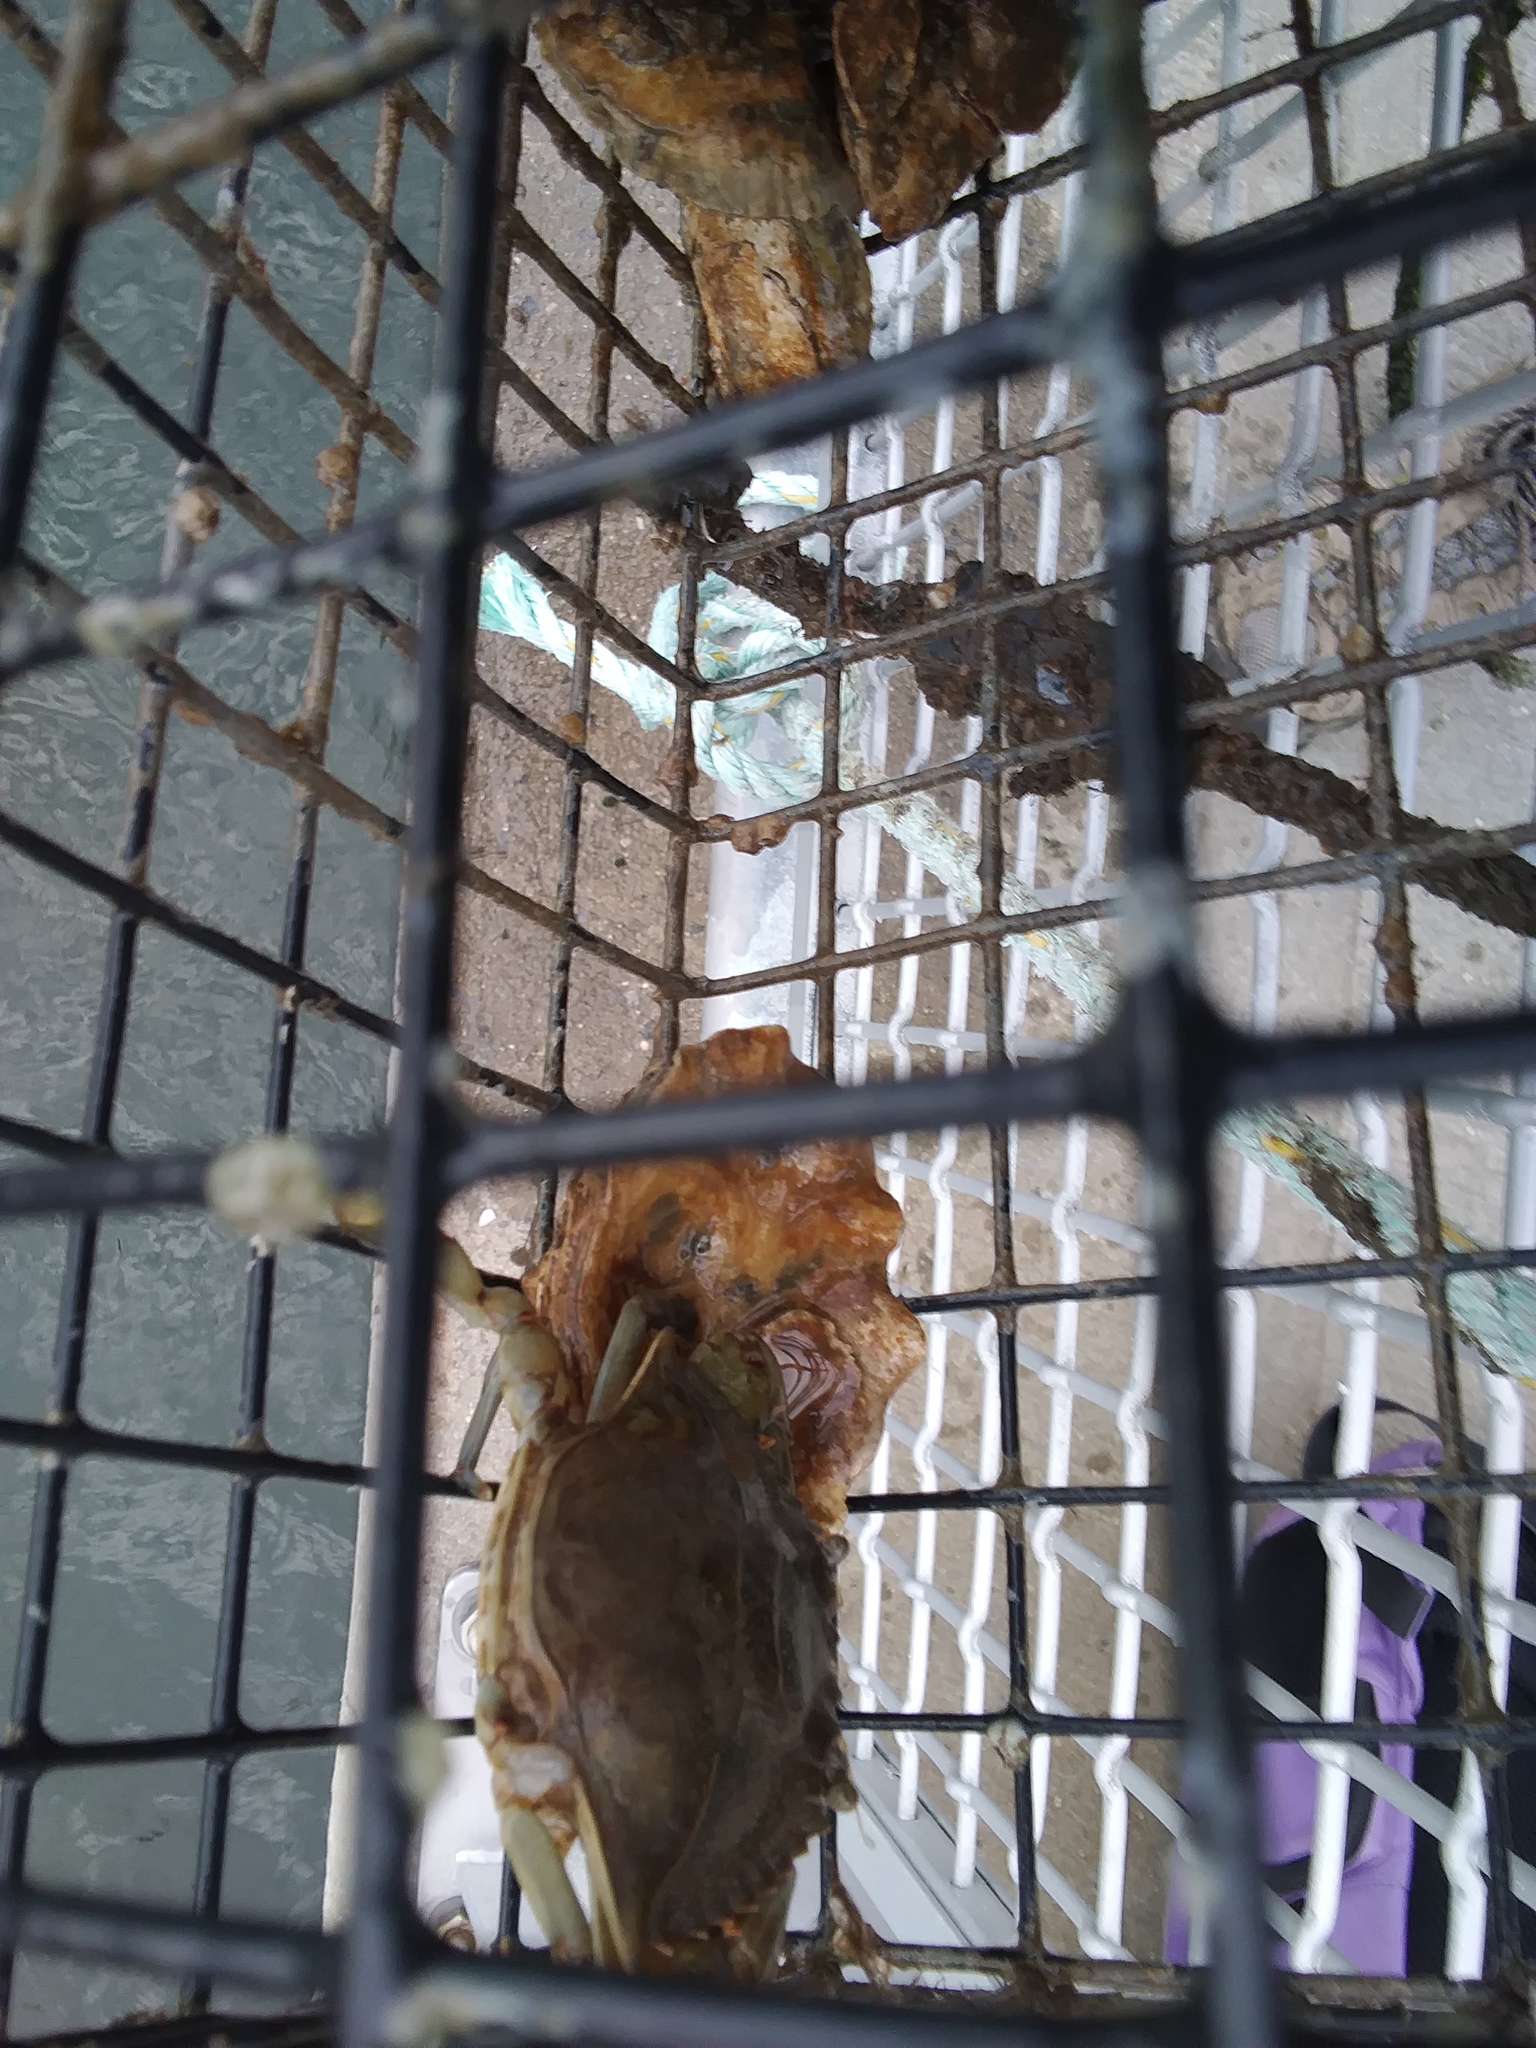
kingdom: Animalia
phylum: Arthropoda
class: Malacostraca
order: Decapoda
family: Portunidae
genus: Callinectes
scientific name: Callinectes sapidus
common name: Blue crab
